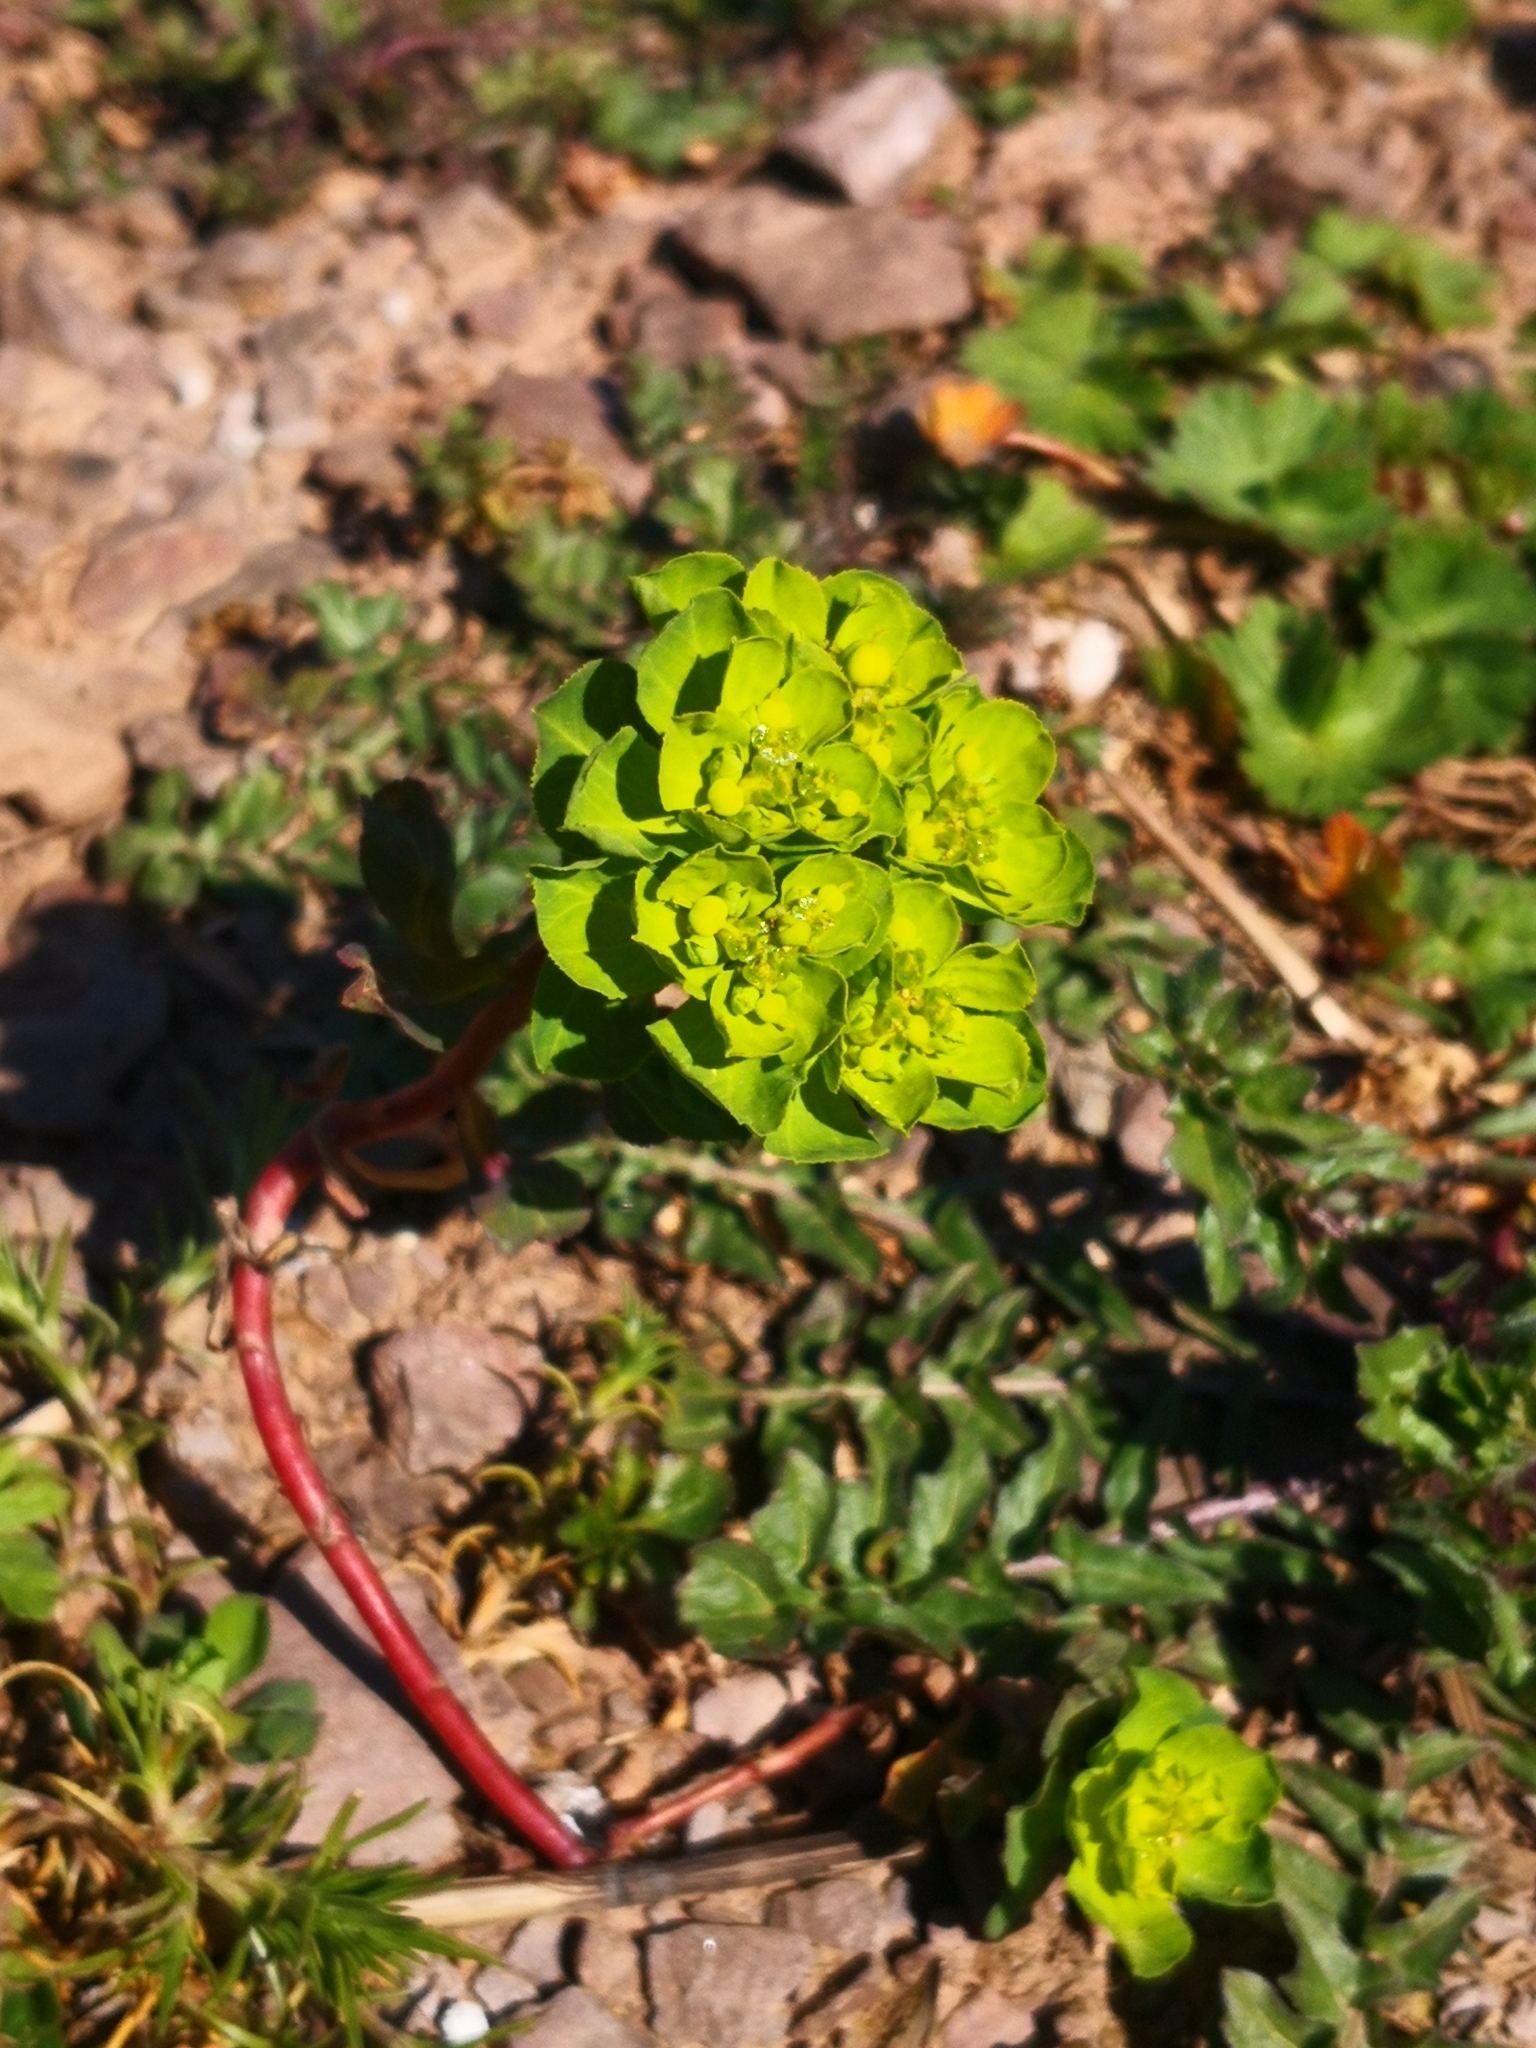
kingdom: Plantae
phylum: Tracheophyta
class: Magnoliopsida
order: Malpighiales
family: Euphorbiaceae
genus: Euphorbia
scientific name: Euphorbia helioscopia
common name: Sun spurge
